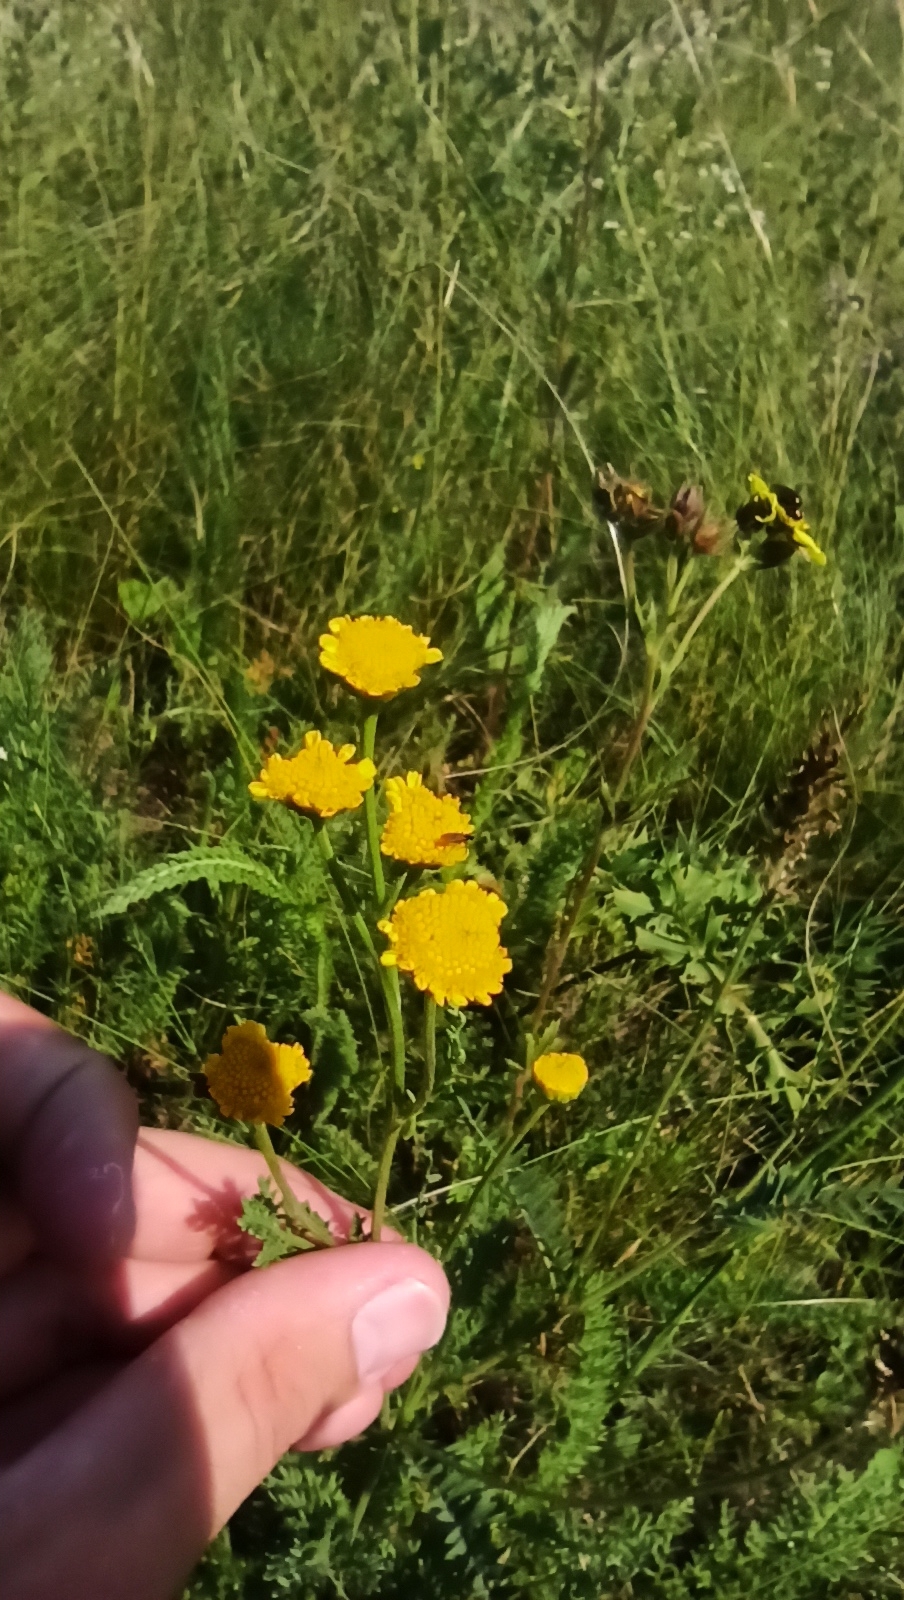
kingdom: Plantae
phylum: Tracheophyta
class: Magnoliopsida
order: Asterales
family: Asteraceae
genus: Tanacetum
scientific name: Tanacetum achilleifolium
